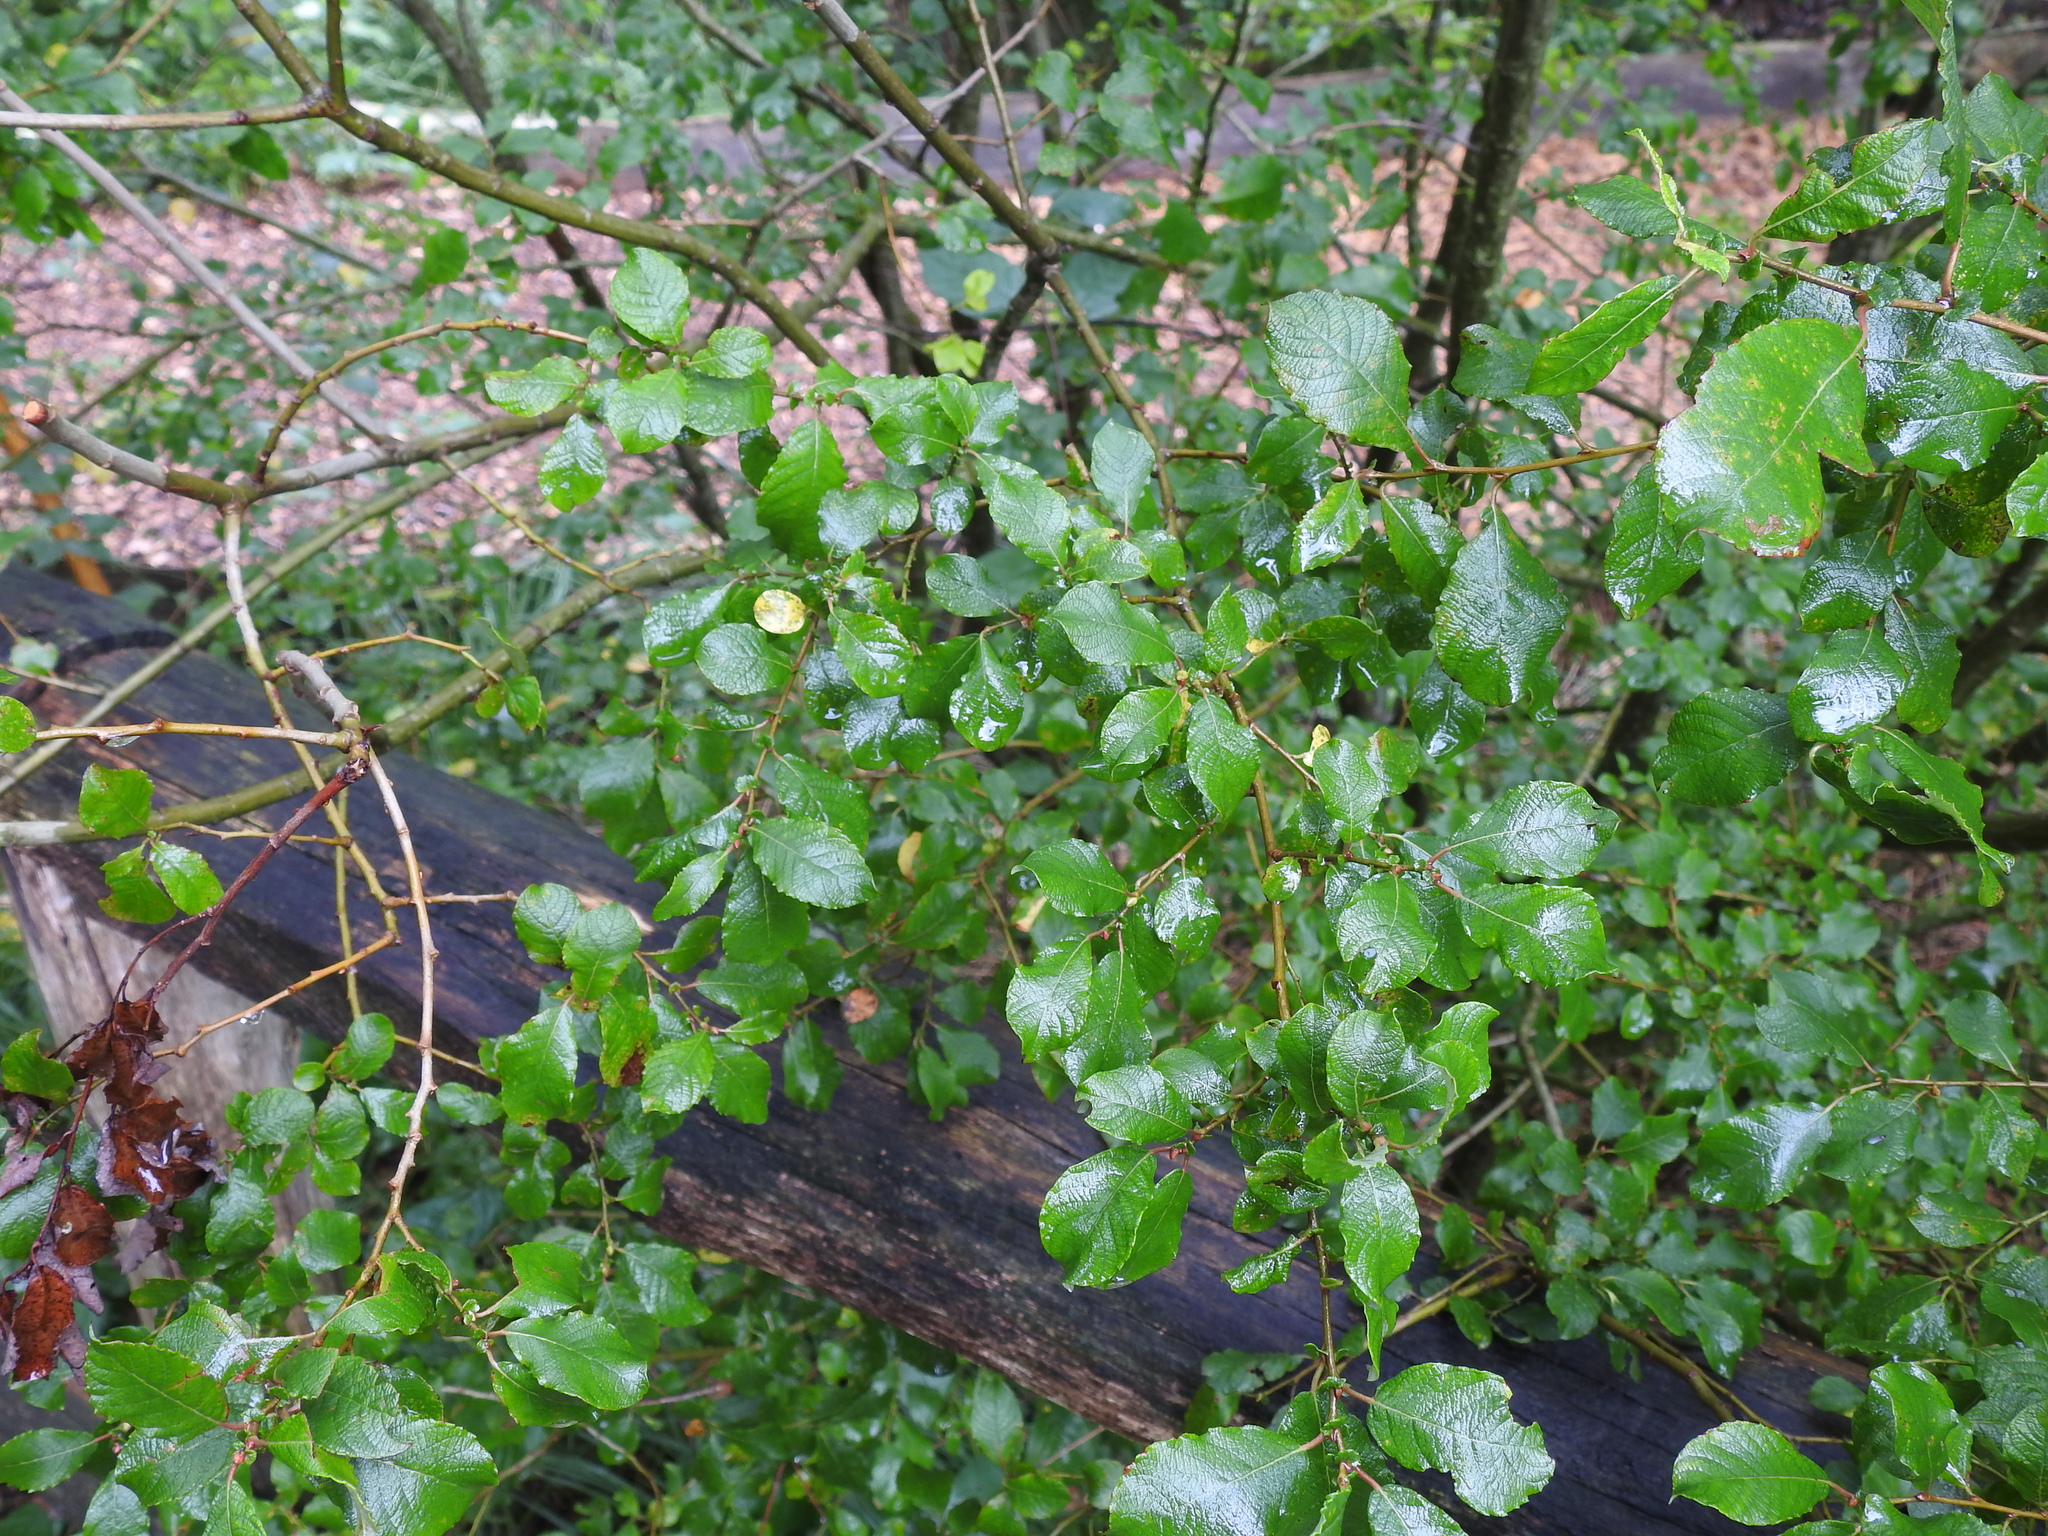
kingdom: Plantae
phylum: Tracheophyta
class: Magnoliopsida
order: Malpighiales
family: Salicaceae
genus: Salix
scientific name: Salix aurita
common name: Eared willow
